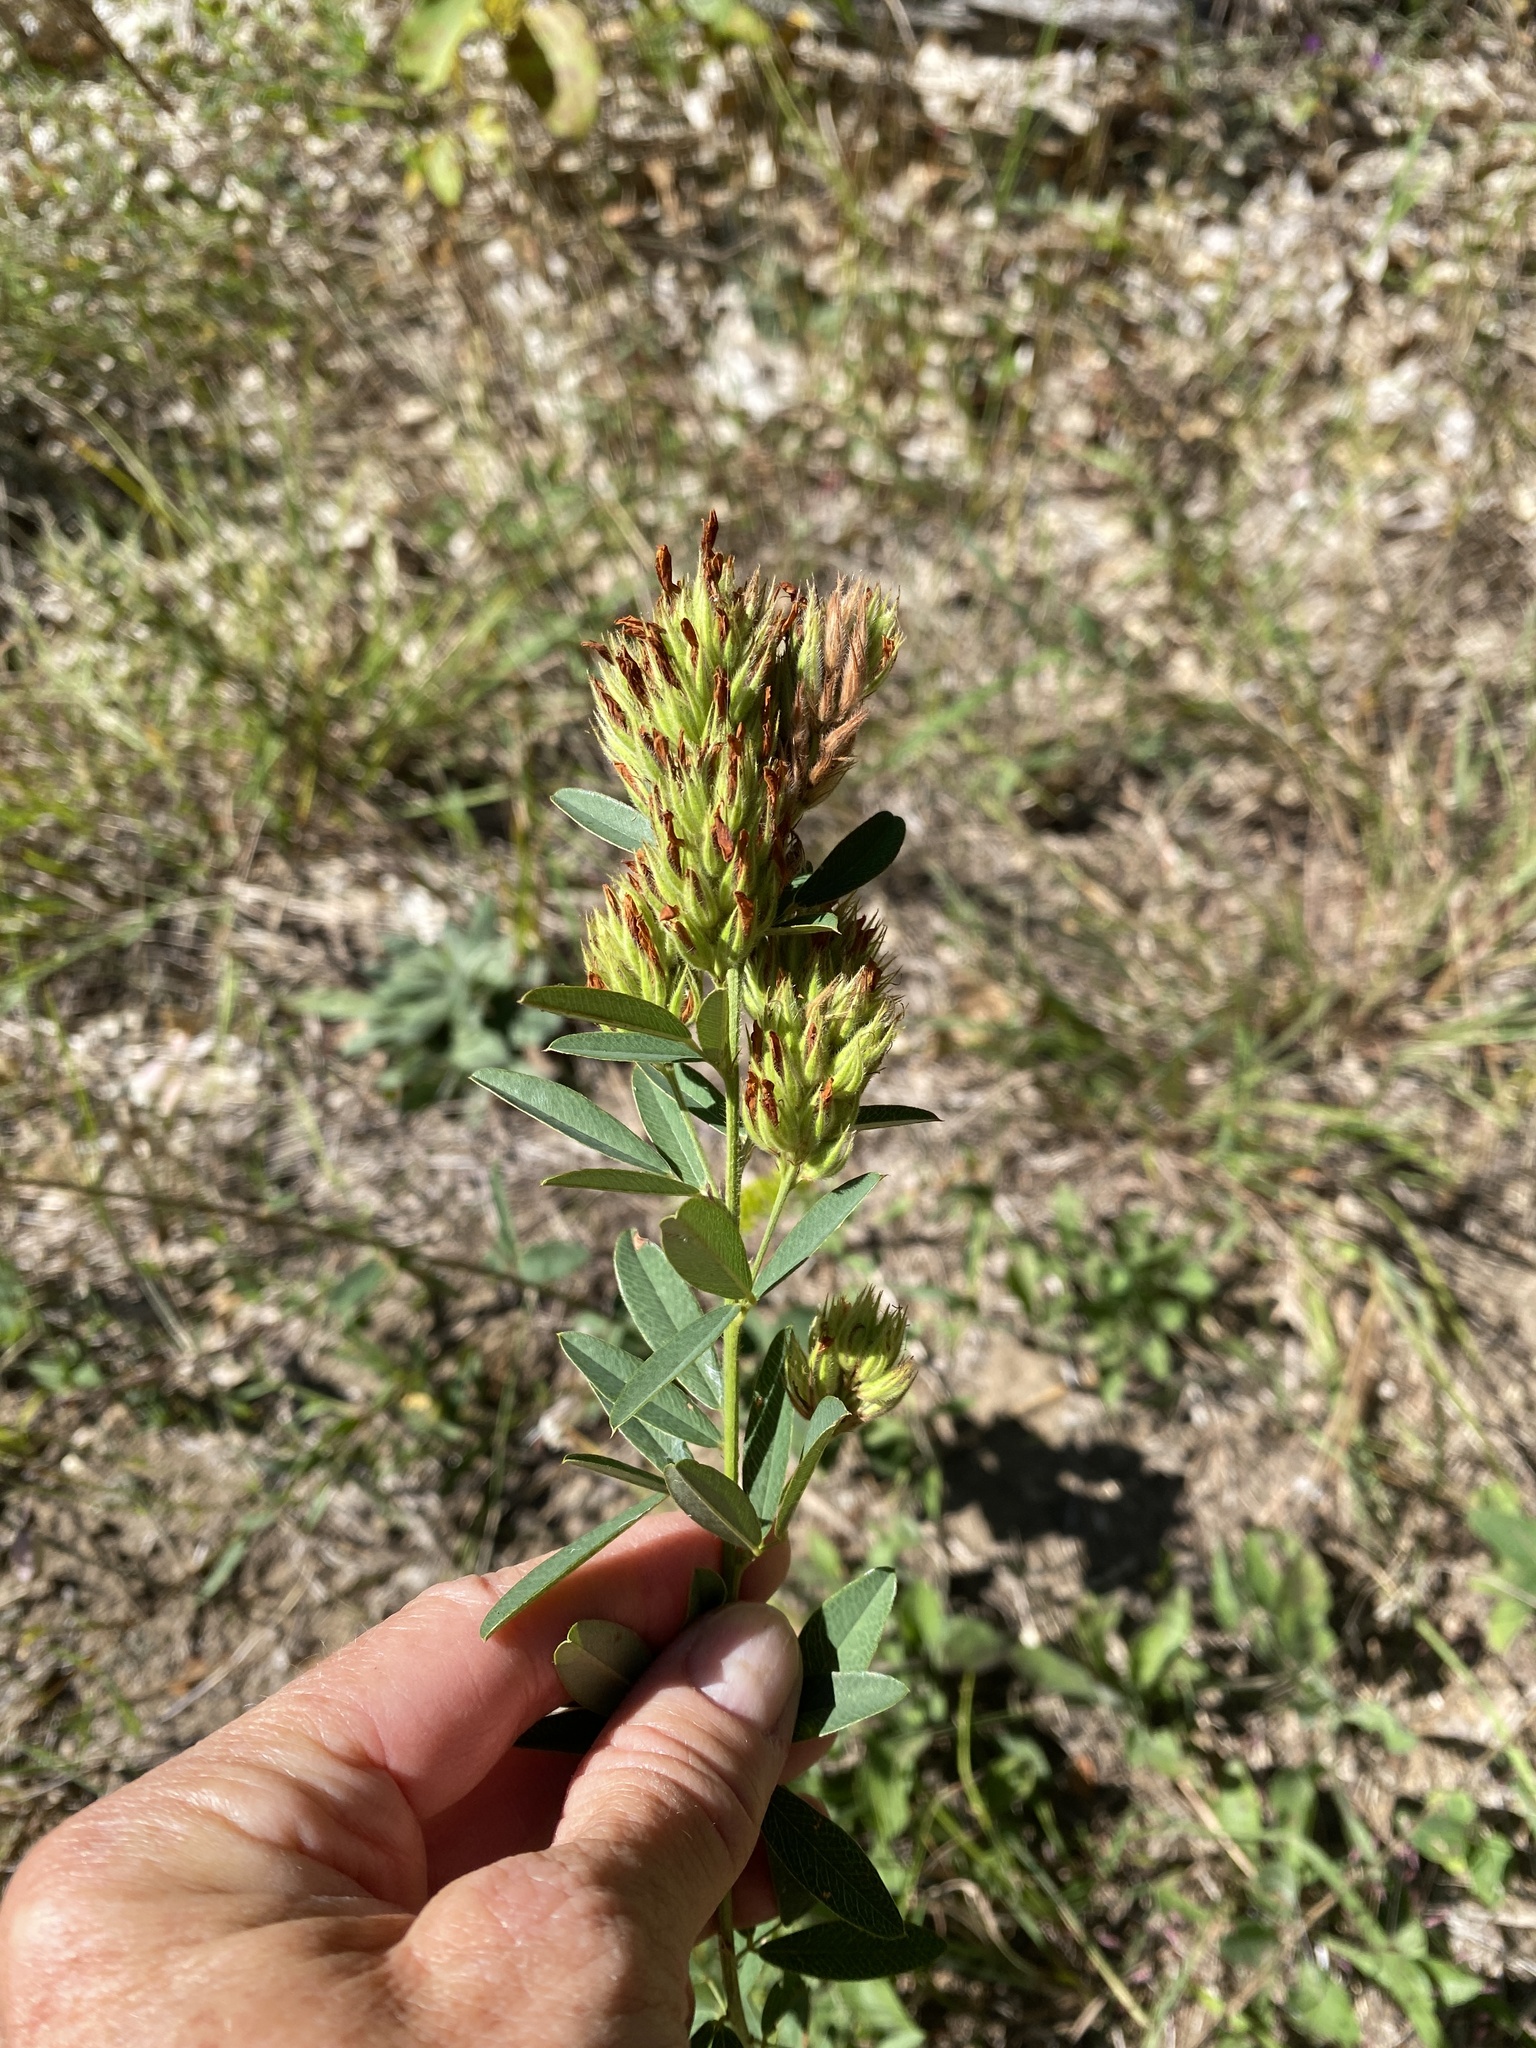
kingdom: Plantae
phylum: Tracheophyta
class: Magnoliopsida
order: Fabales
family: Fabaceae
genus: Lespedeza
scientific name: Lespedeza capitata
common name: Dusty clover
